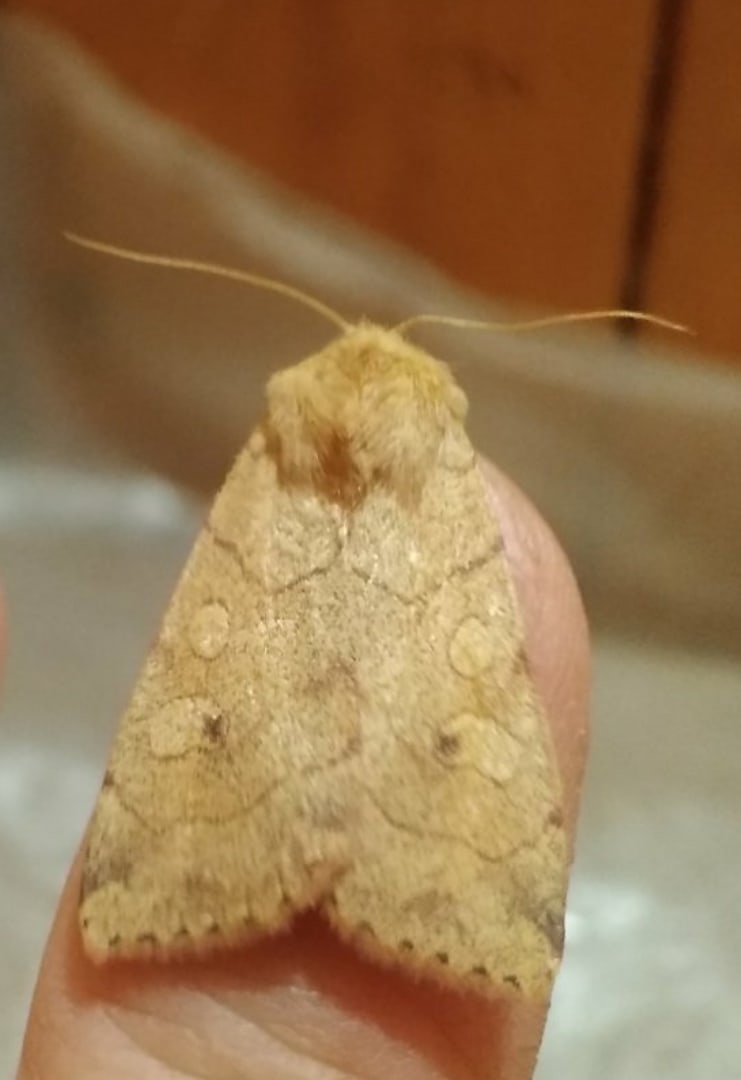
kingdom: Animalia
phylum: Arthropoda
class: Insecta
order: Lepidoptera
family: Noctuidae
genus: Enargia
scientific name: Enargia paleacea
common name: Angle-striped sallow
